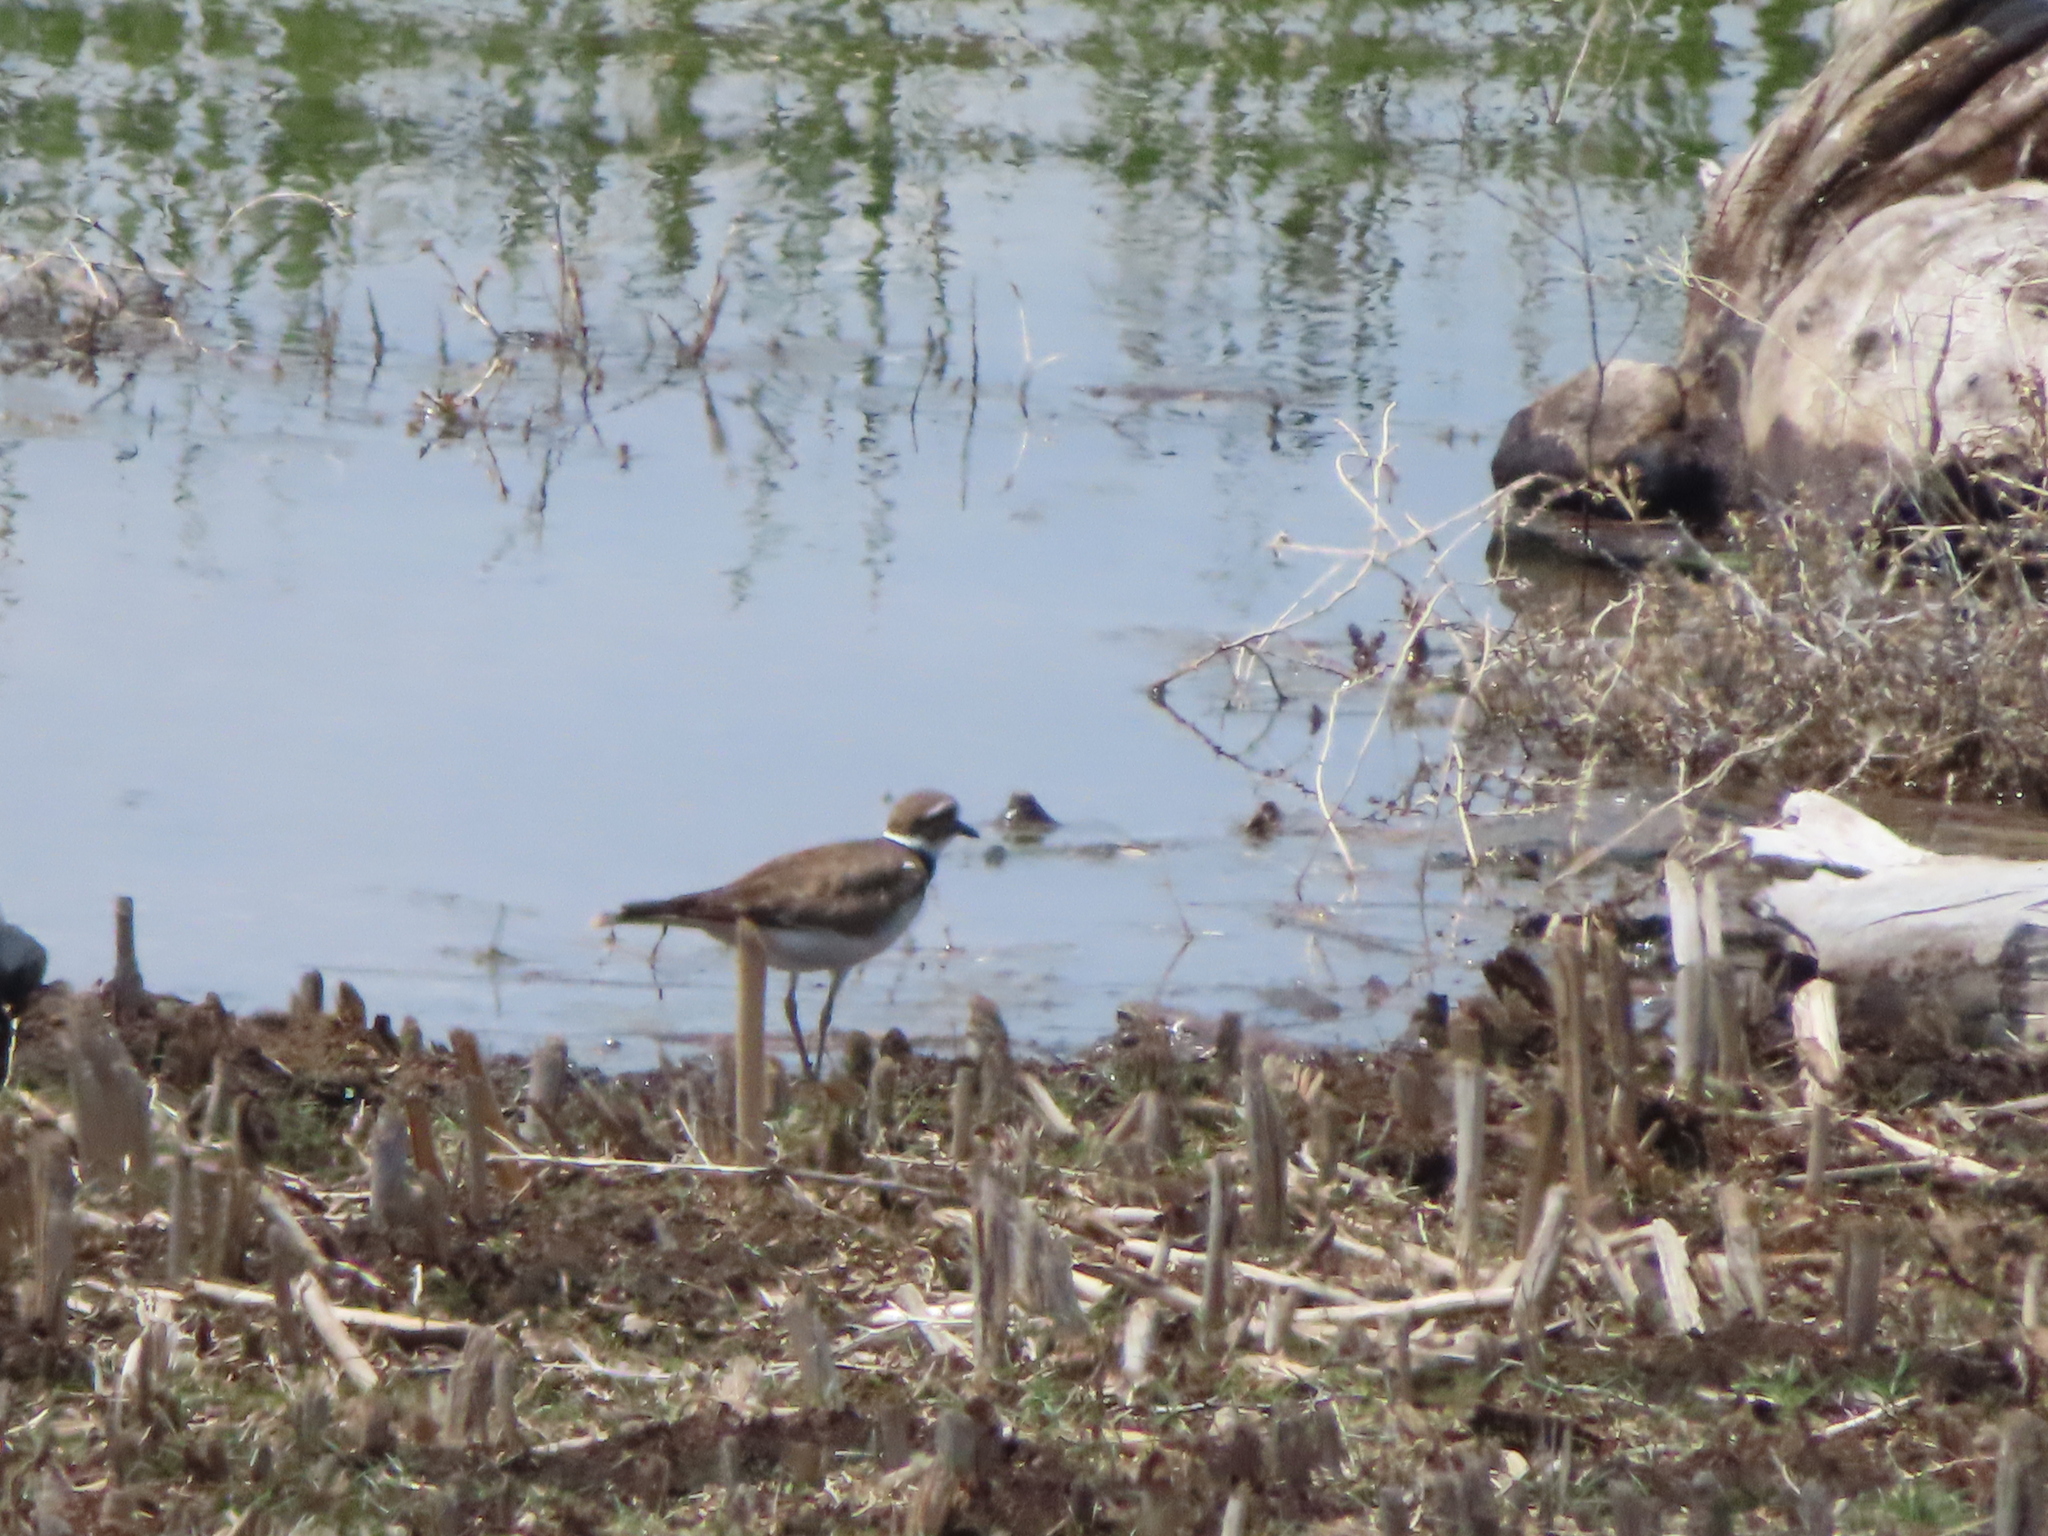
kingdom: Animalia
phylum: Chordata
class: Aves
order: Charadriiformes
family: Charadriidae
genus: Charadrius
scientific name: Charadrius vociferus
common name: Killdeer
